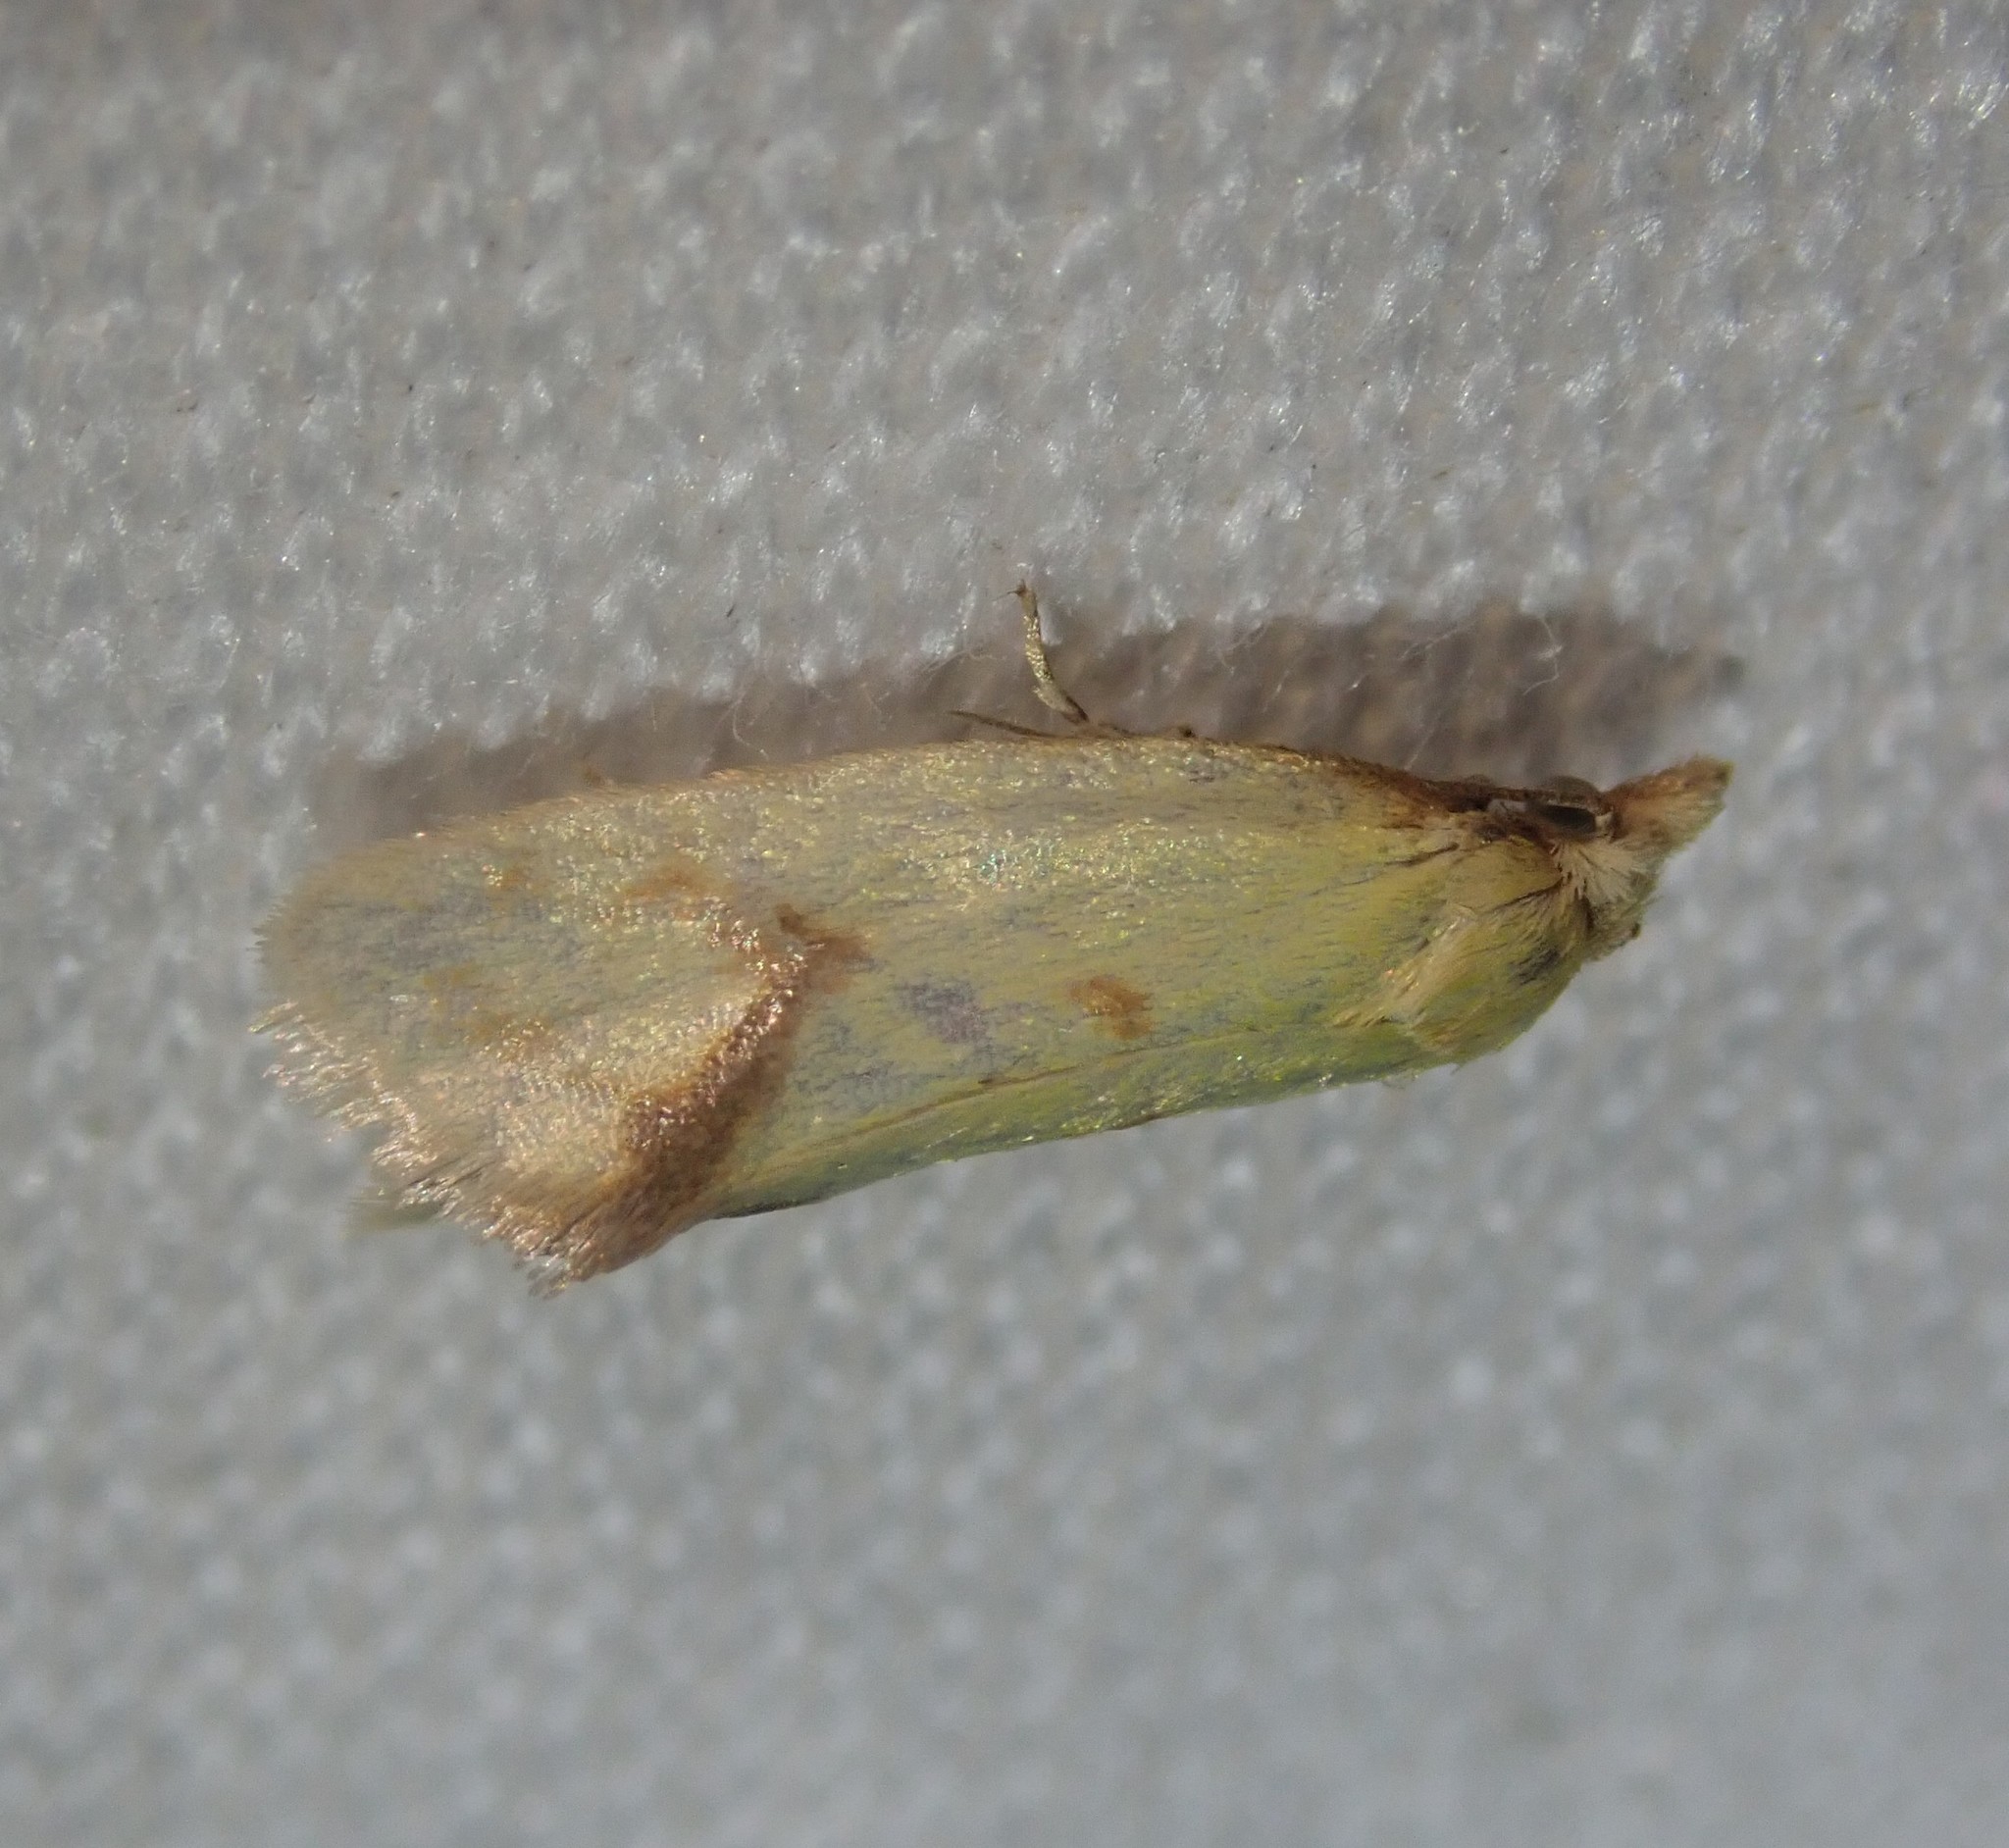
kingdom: Animalia
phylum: Arthropoda
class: Insecta
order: Lepidoptera
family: Tortricidae
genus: Agapeta
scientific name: Agapeta hamana
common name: Common yellow conch
